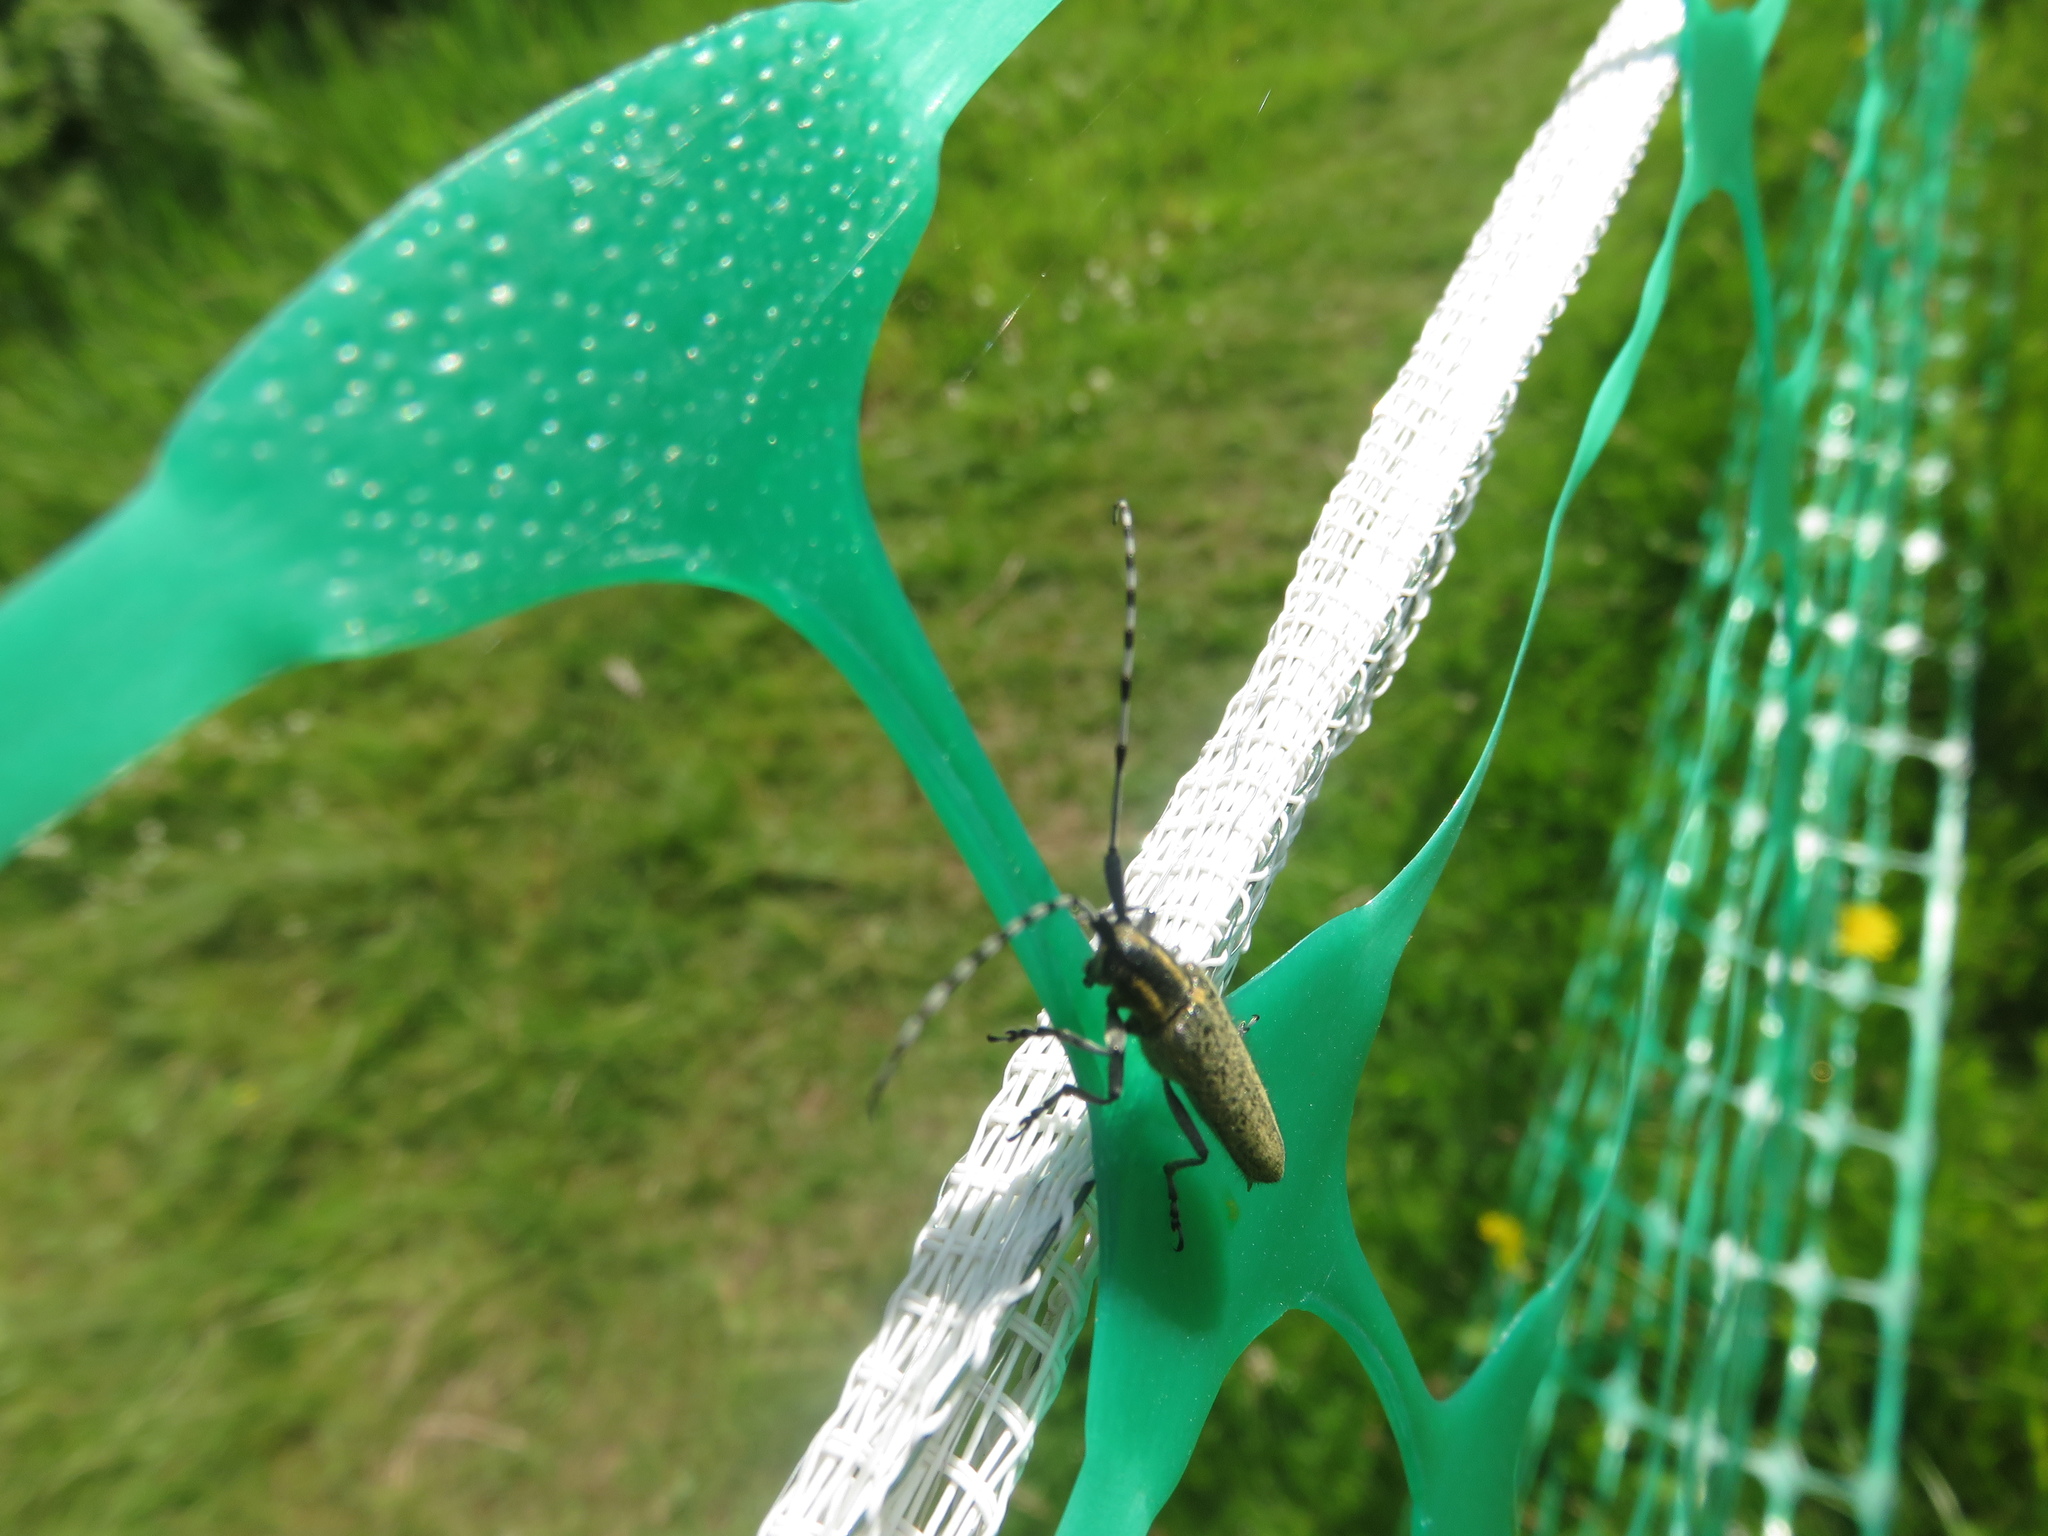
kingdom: Animalia
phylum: Arthropoda
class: Insecta
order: Coleoptera
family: Cerambycidae
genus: Agapanthia
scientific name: Agapanthia villosoviridescens
